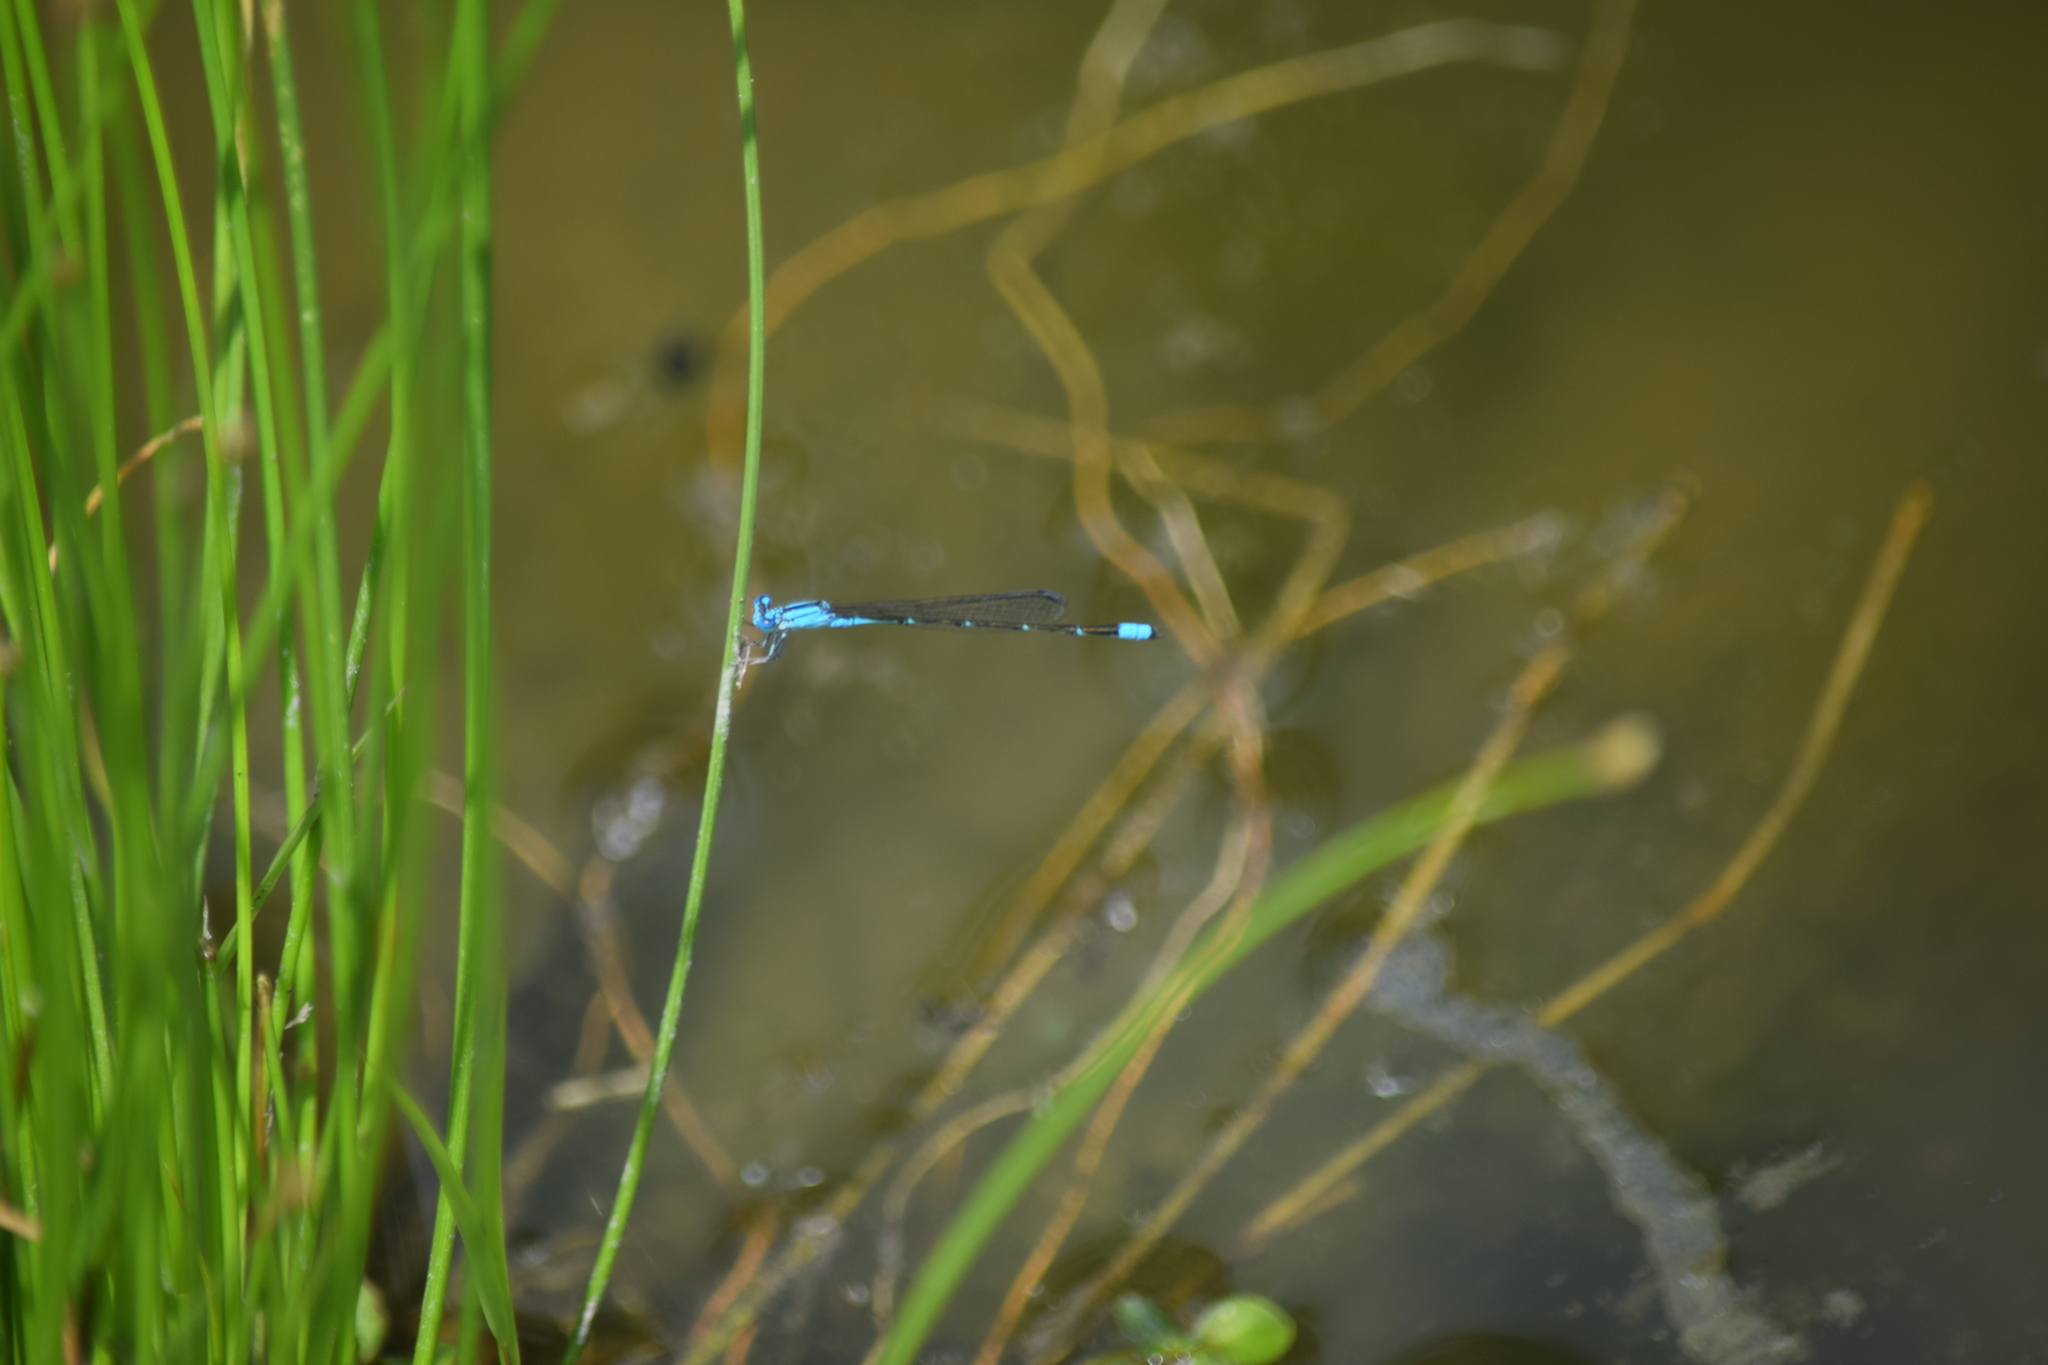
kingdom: Animalia
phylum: Arthropoda
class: Insecta
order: Odonata
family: Coenagrionidae
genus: Enallagma
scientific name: Enallagma traviatum
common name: Slender bluet
